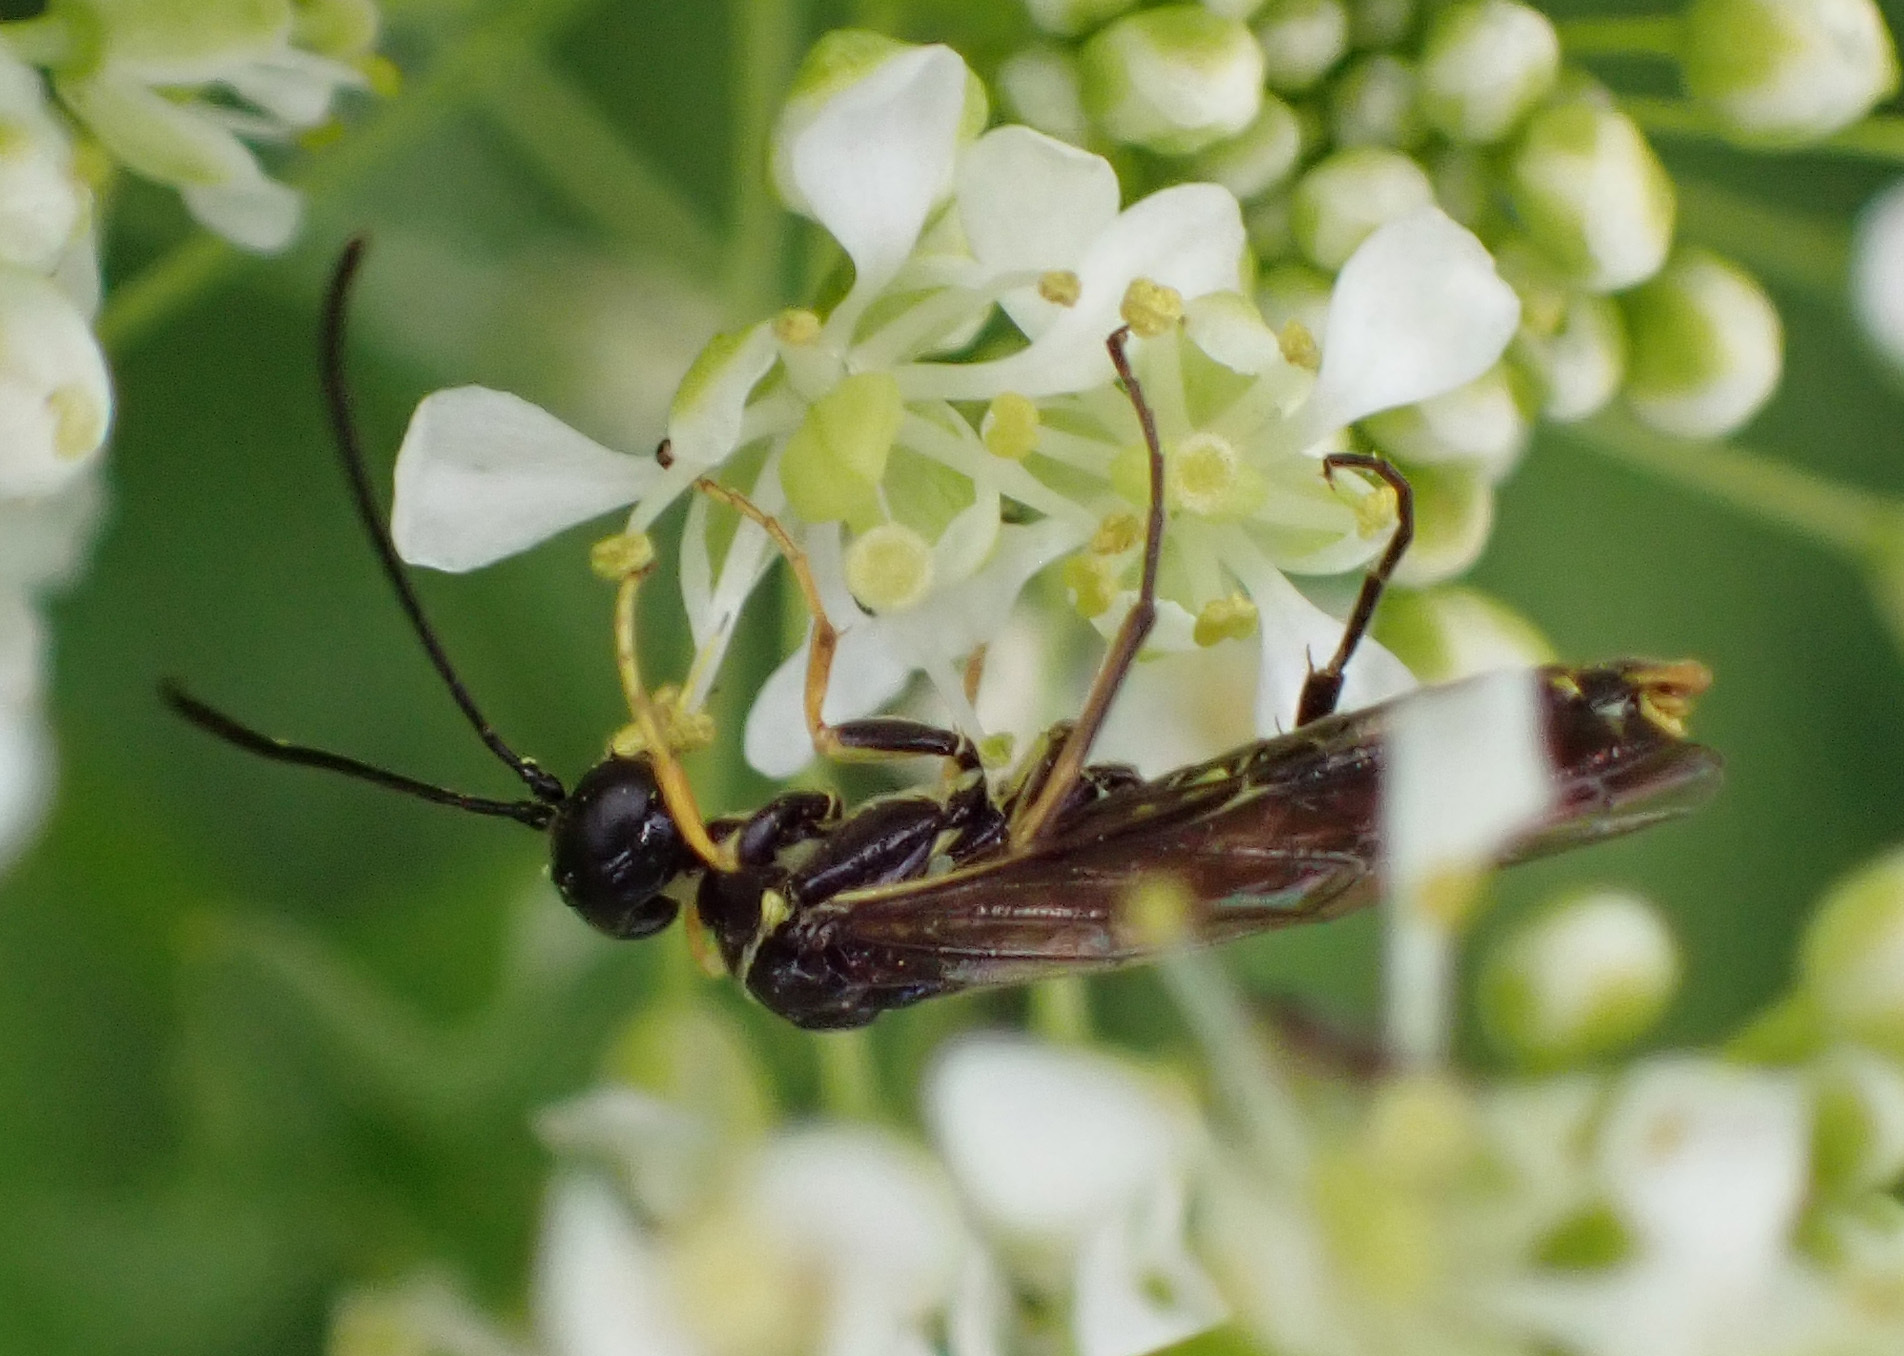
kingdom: Animalia
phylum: Arthropoda
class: Insecta
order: Hymenoptera
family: Cephidae
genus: Cephus
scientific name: Cephus pygmeus
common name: Wasp
